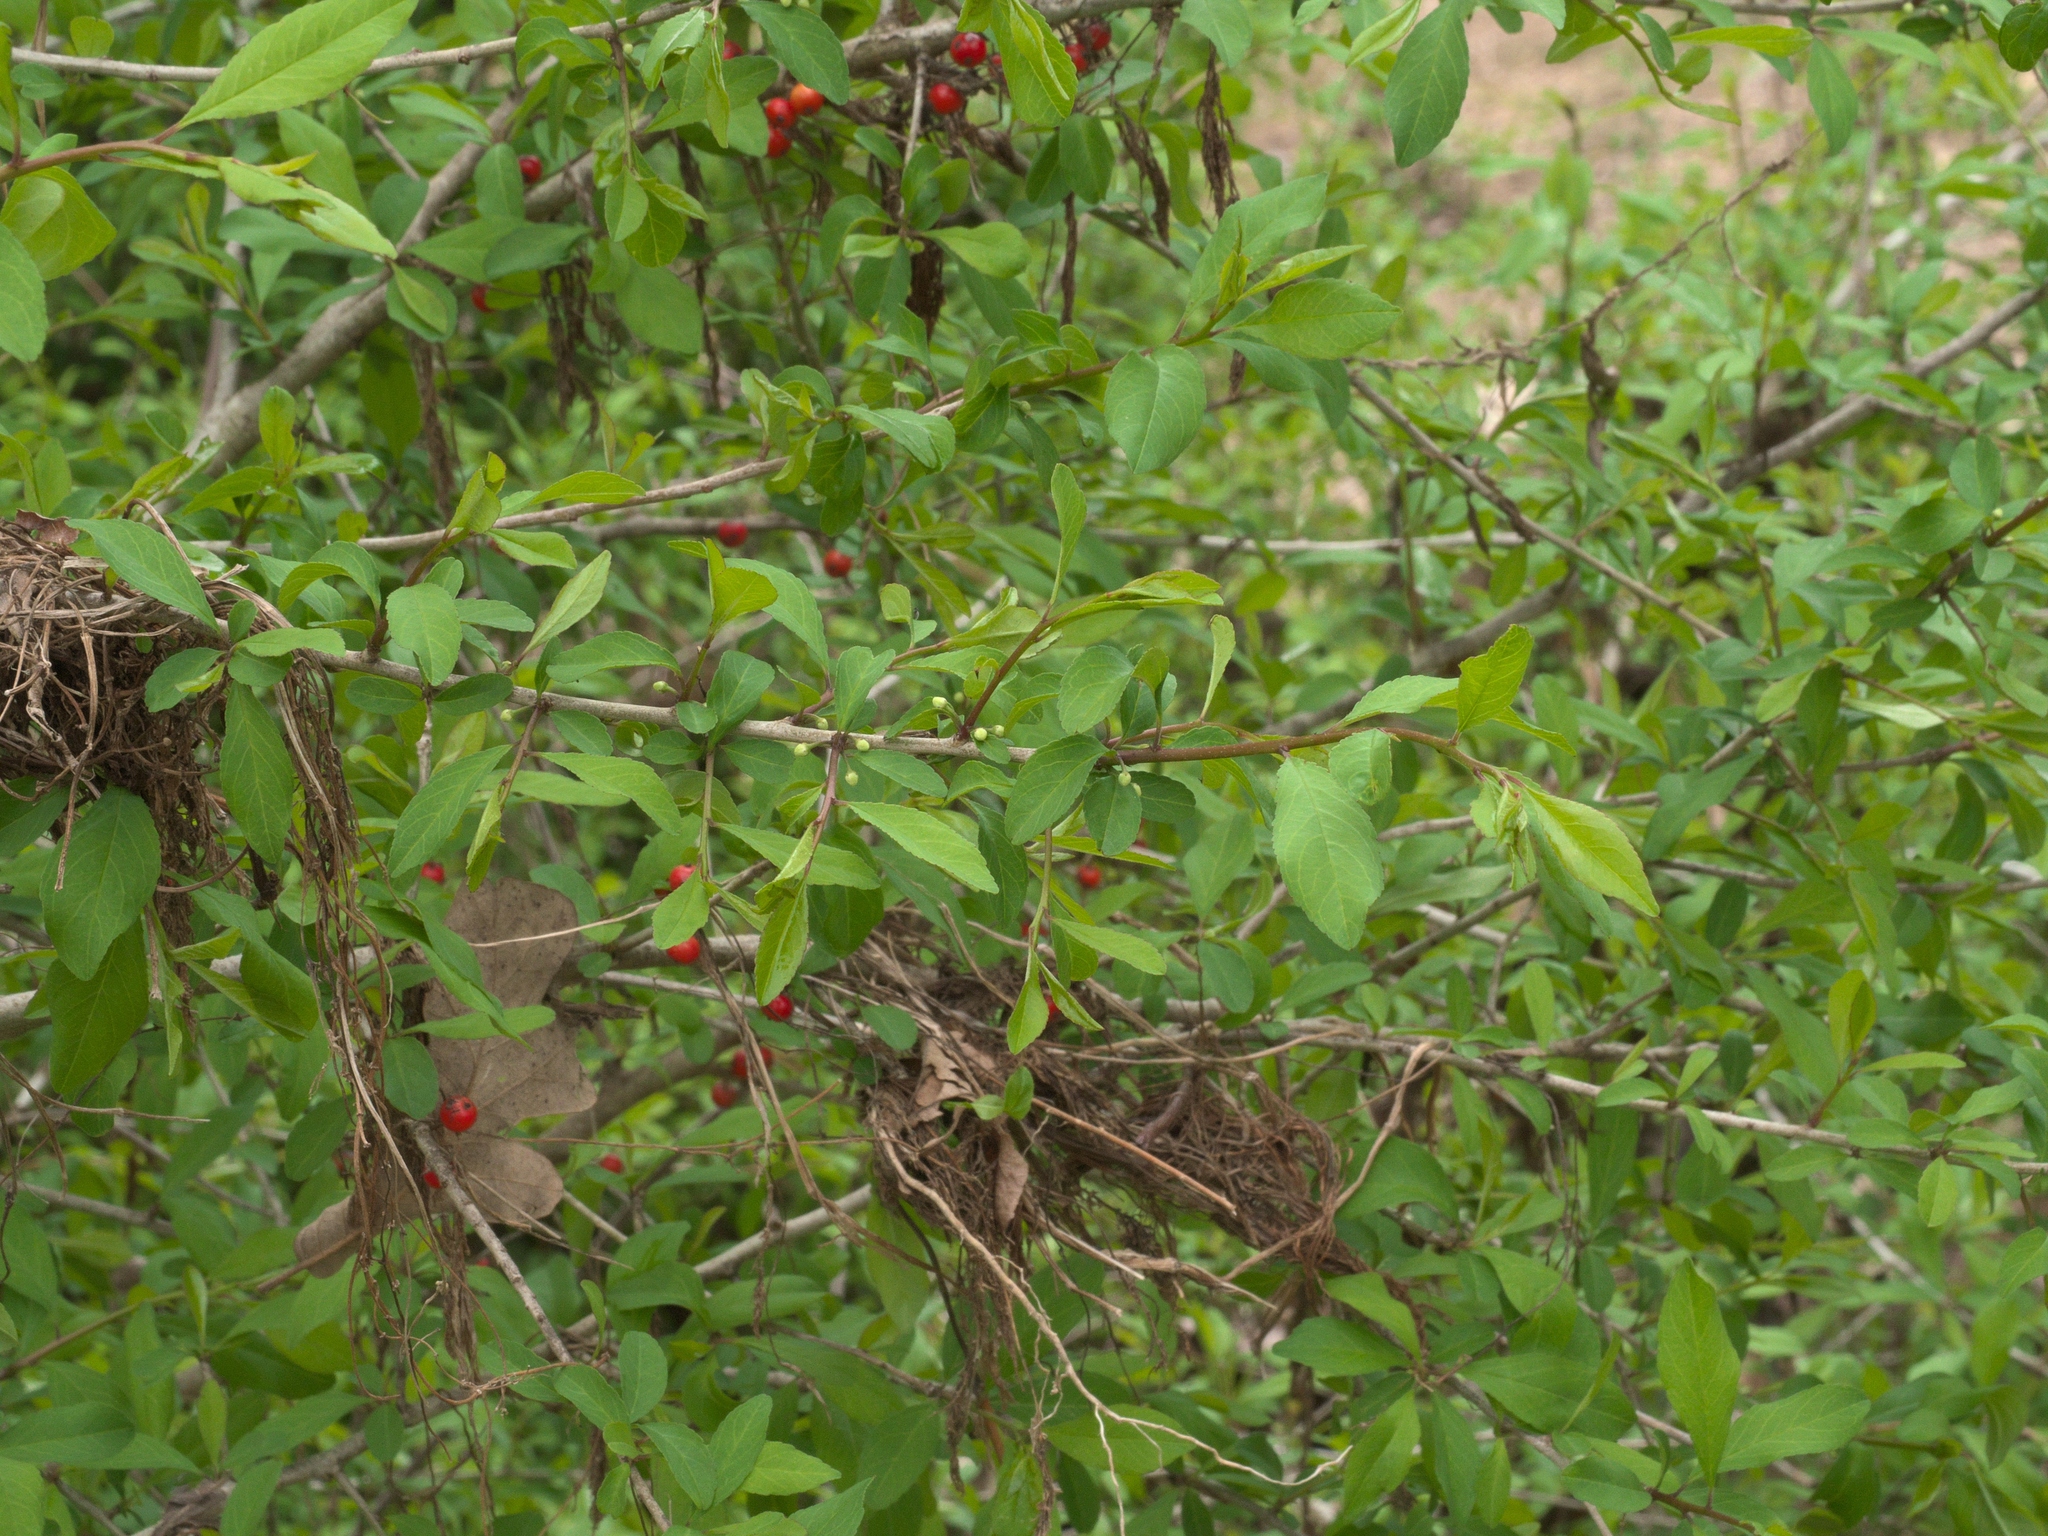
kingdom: Plantae
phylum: Tracheophyta
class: Magnoliopsida
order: Aquifoliales
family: Aquifoliaceae
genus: Ilex
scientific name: Ilex decidua
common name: Possum-haw
